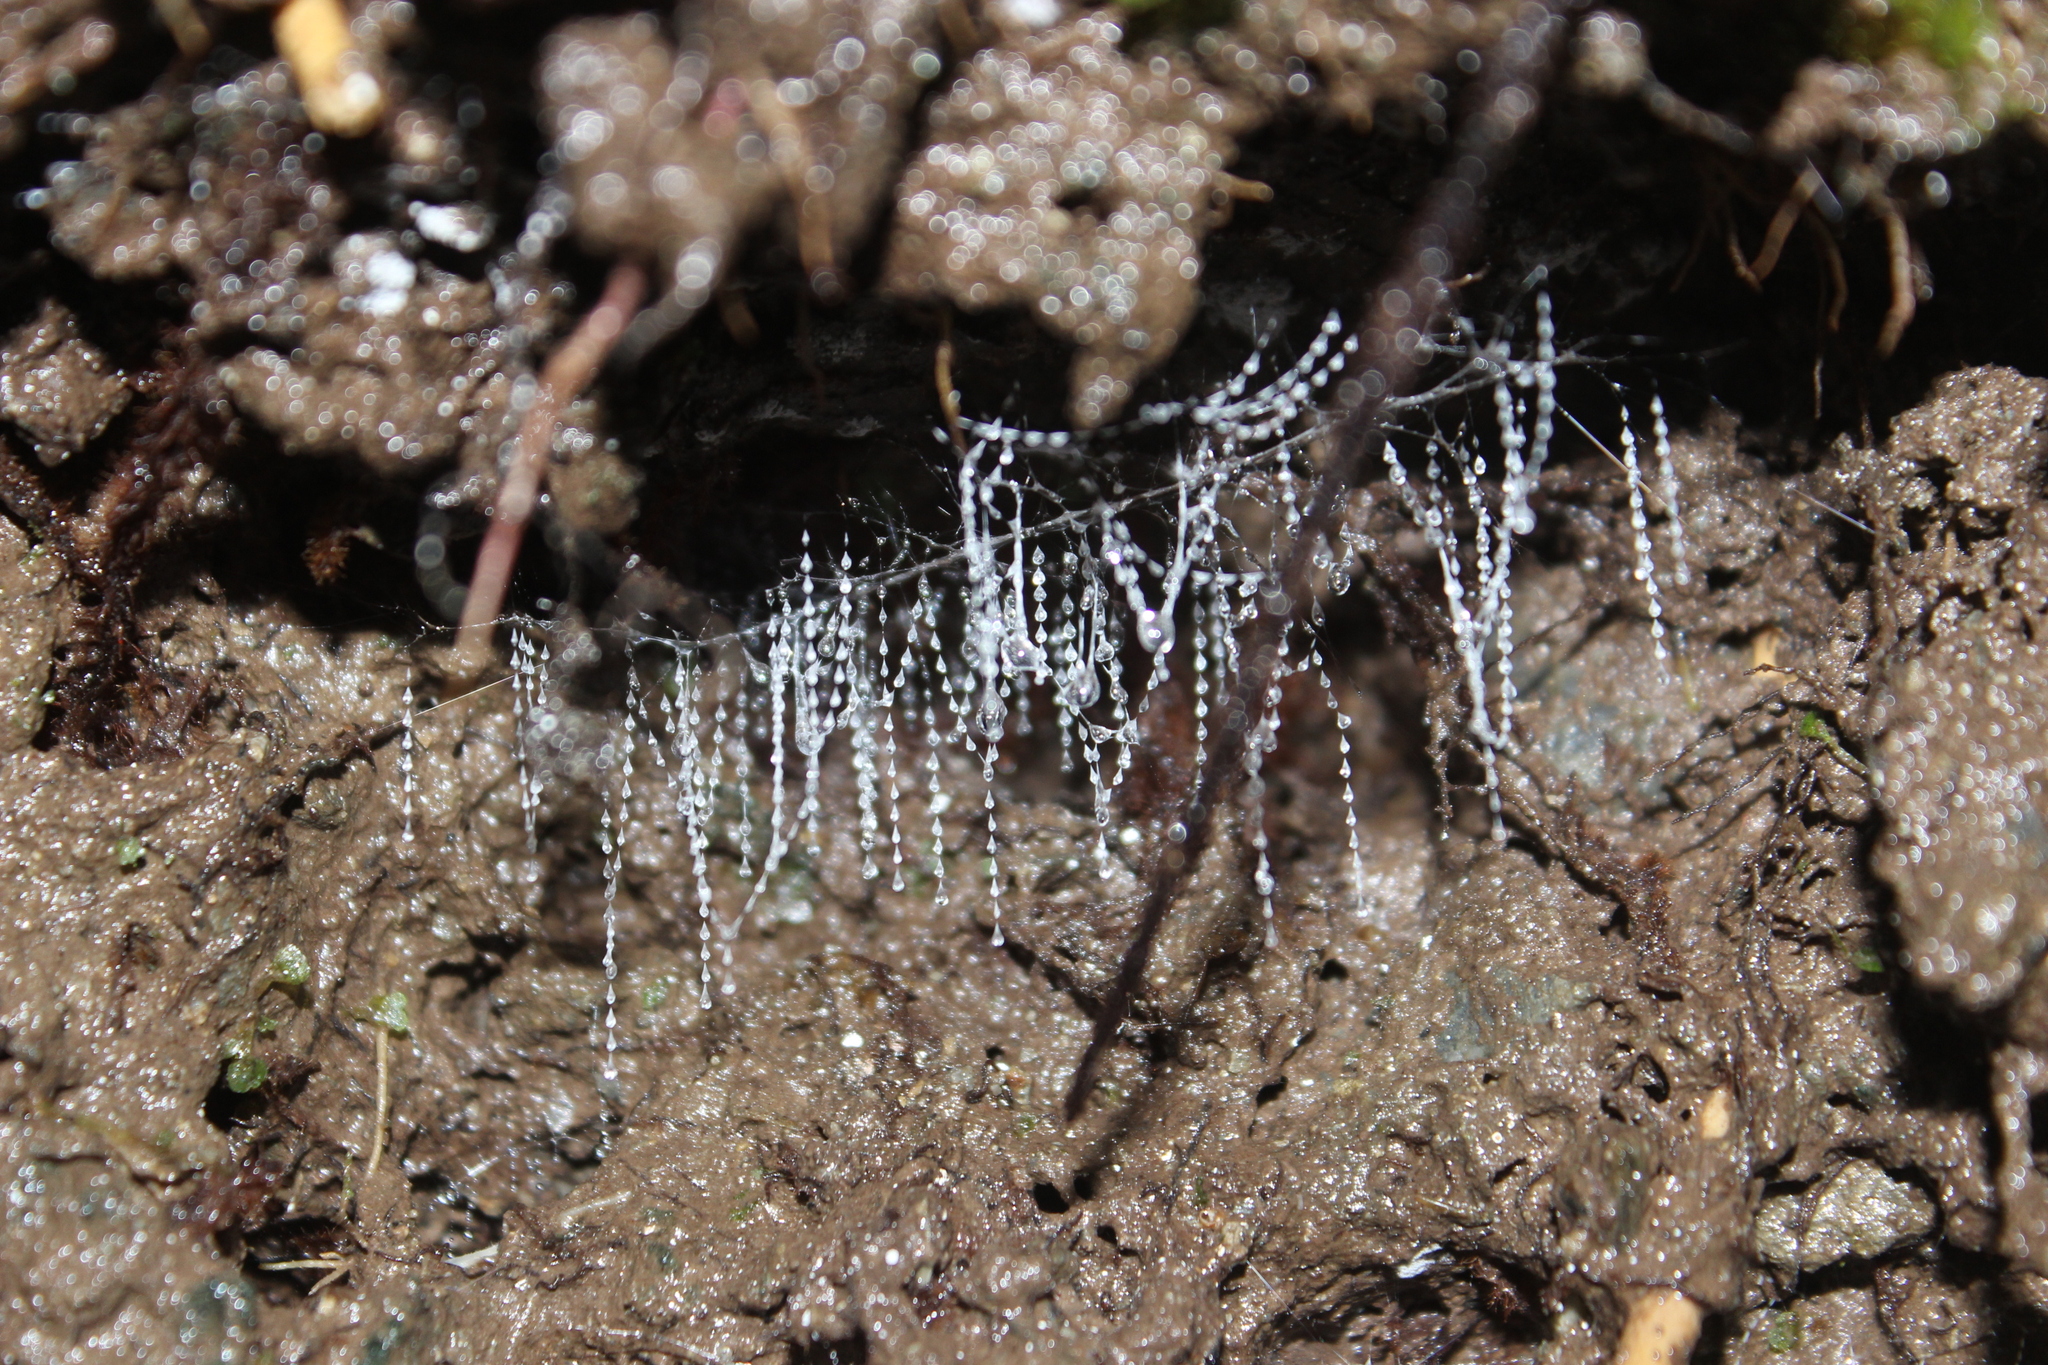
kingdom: Animalia
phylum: Arthropoda
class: Insecta
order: Diptera
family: Keroplatidae
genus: Arachnocampa
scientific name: Arachnocampa luminosa
